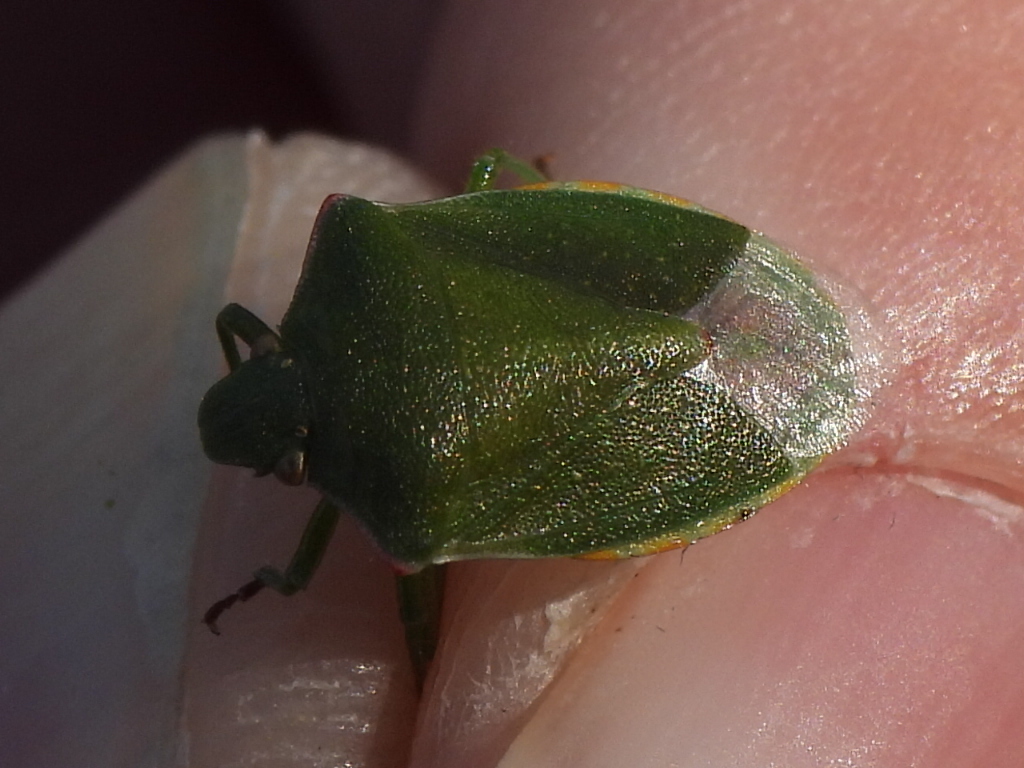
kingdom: Animalia
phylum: Arthropoda
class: Insecta
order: Hemiptera
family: Pentatomidae
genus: Thyanta
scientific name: Thyanta accerra
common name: Stink bug
